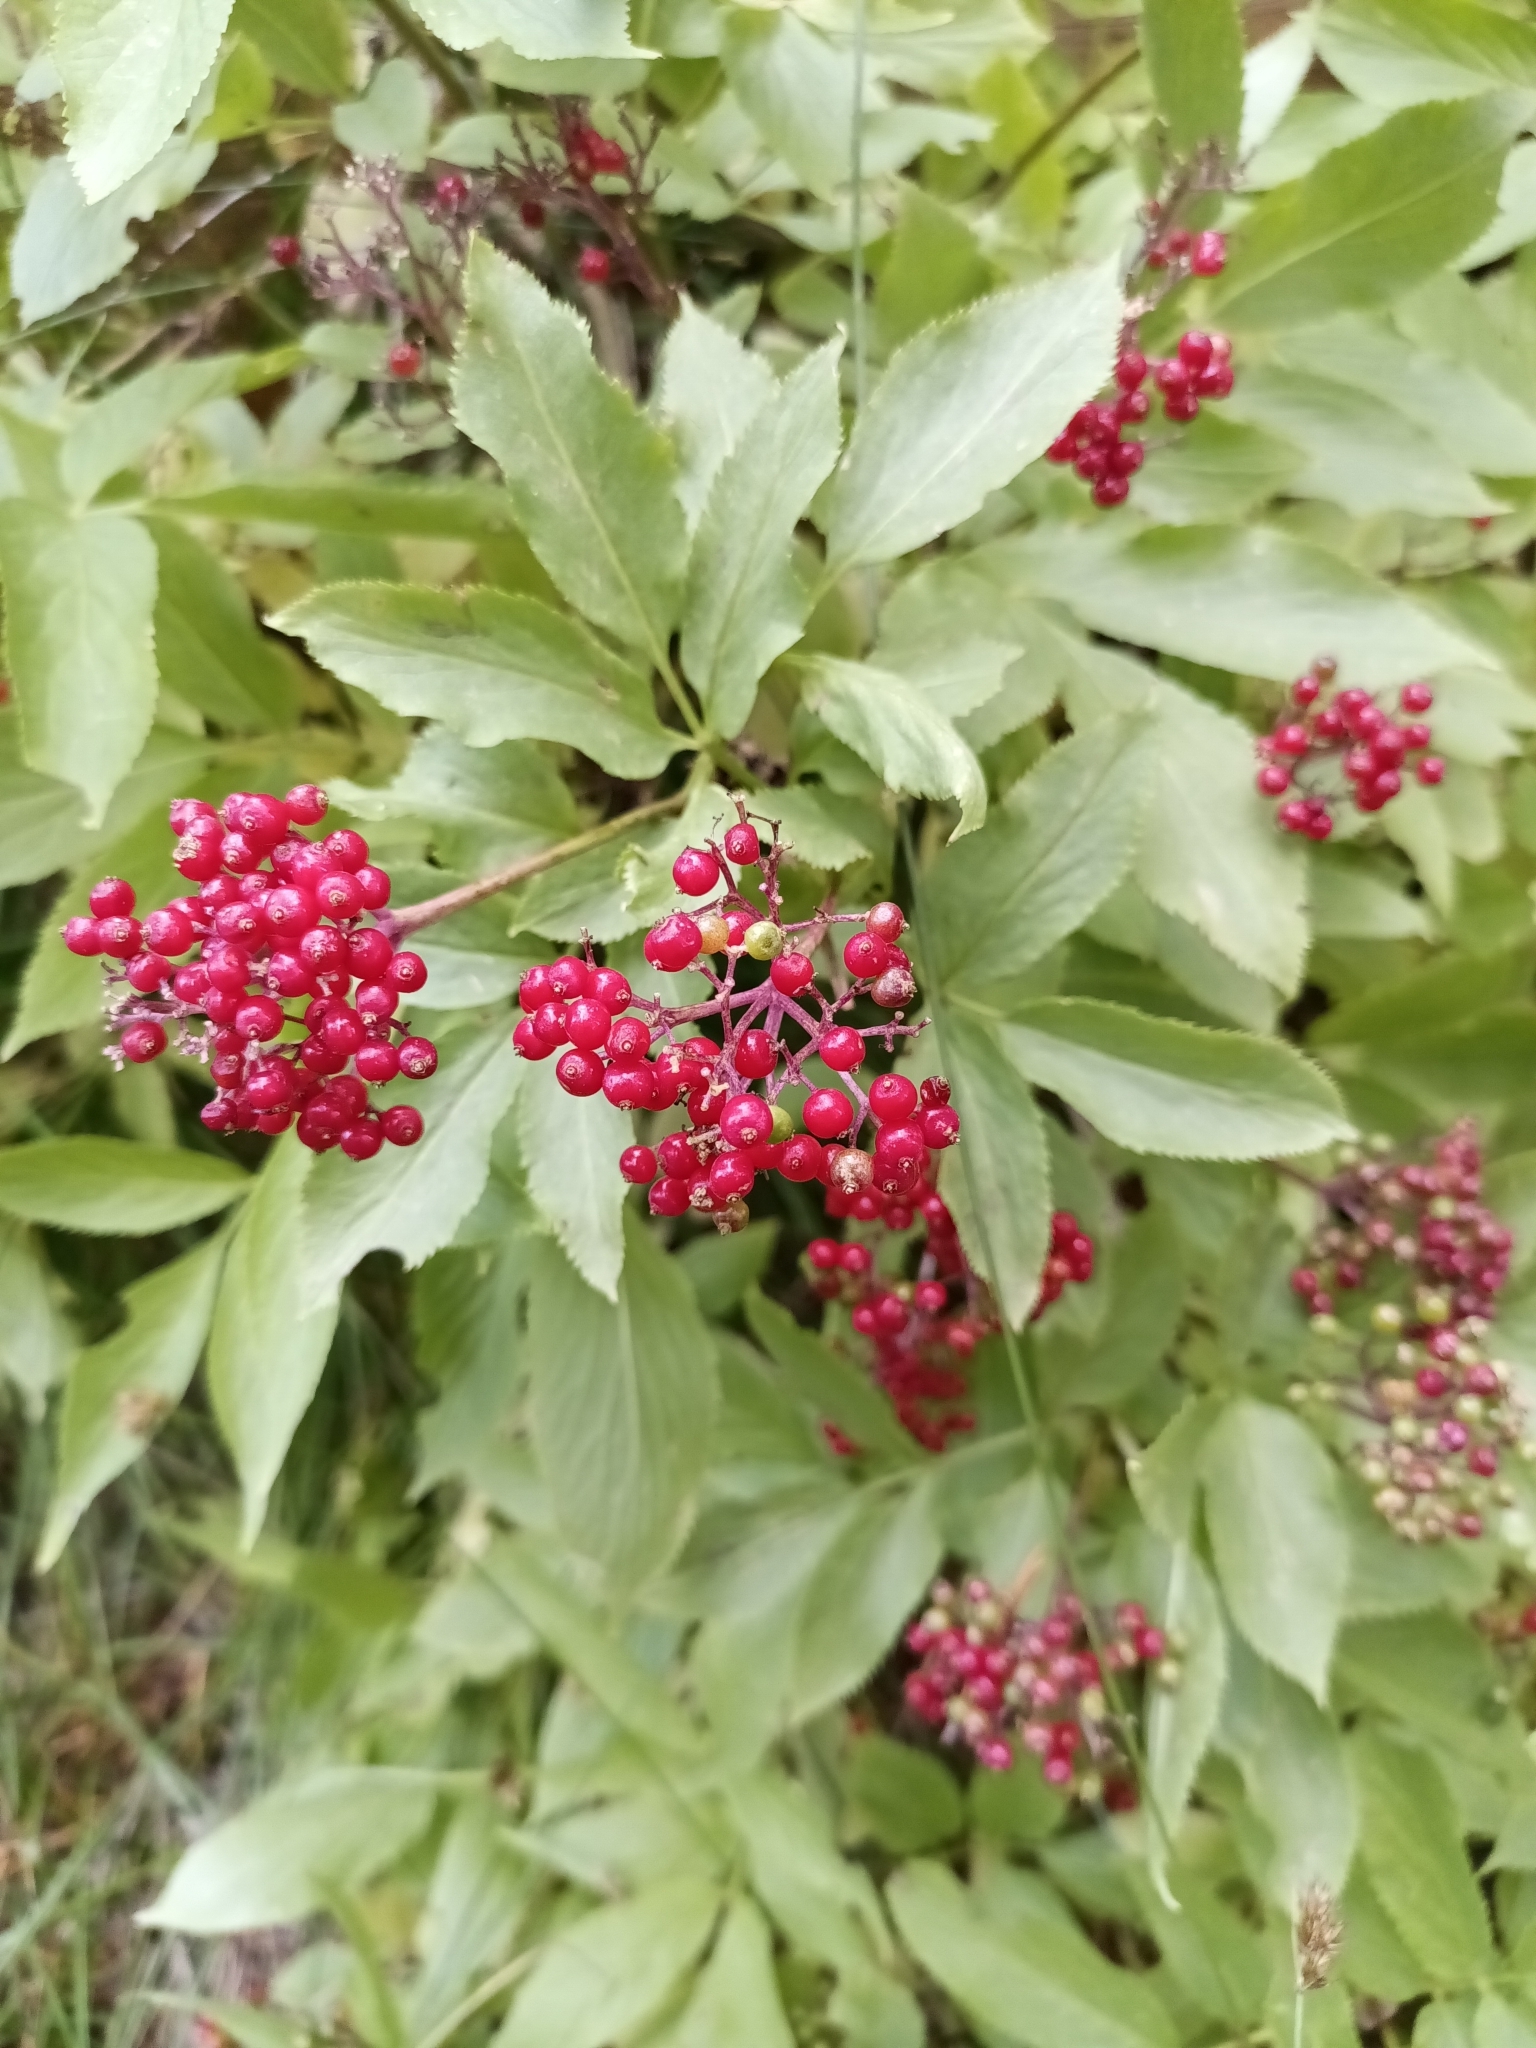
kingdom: Plantae
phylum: Tracheophyta
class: Magnoliopsida
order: Dipsacales
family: Viburnaceae
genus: Sambucus
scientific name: Sambucus racemosa
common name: Red-berried elder
